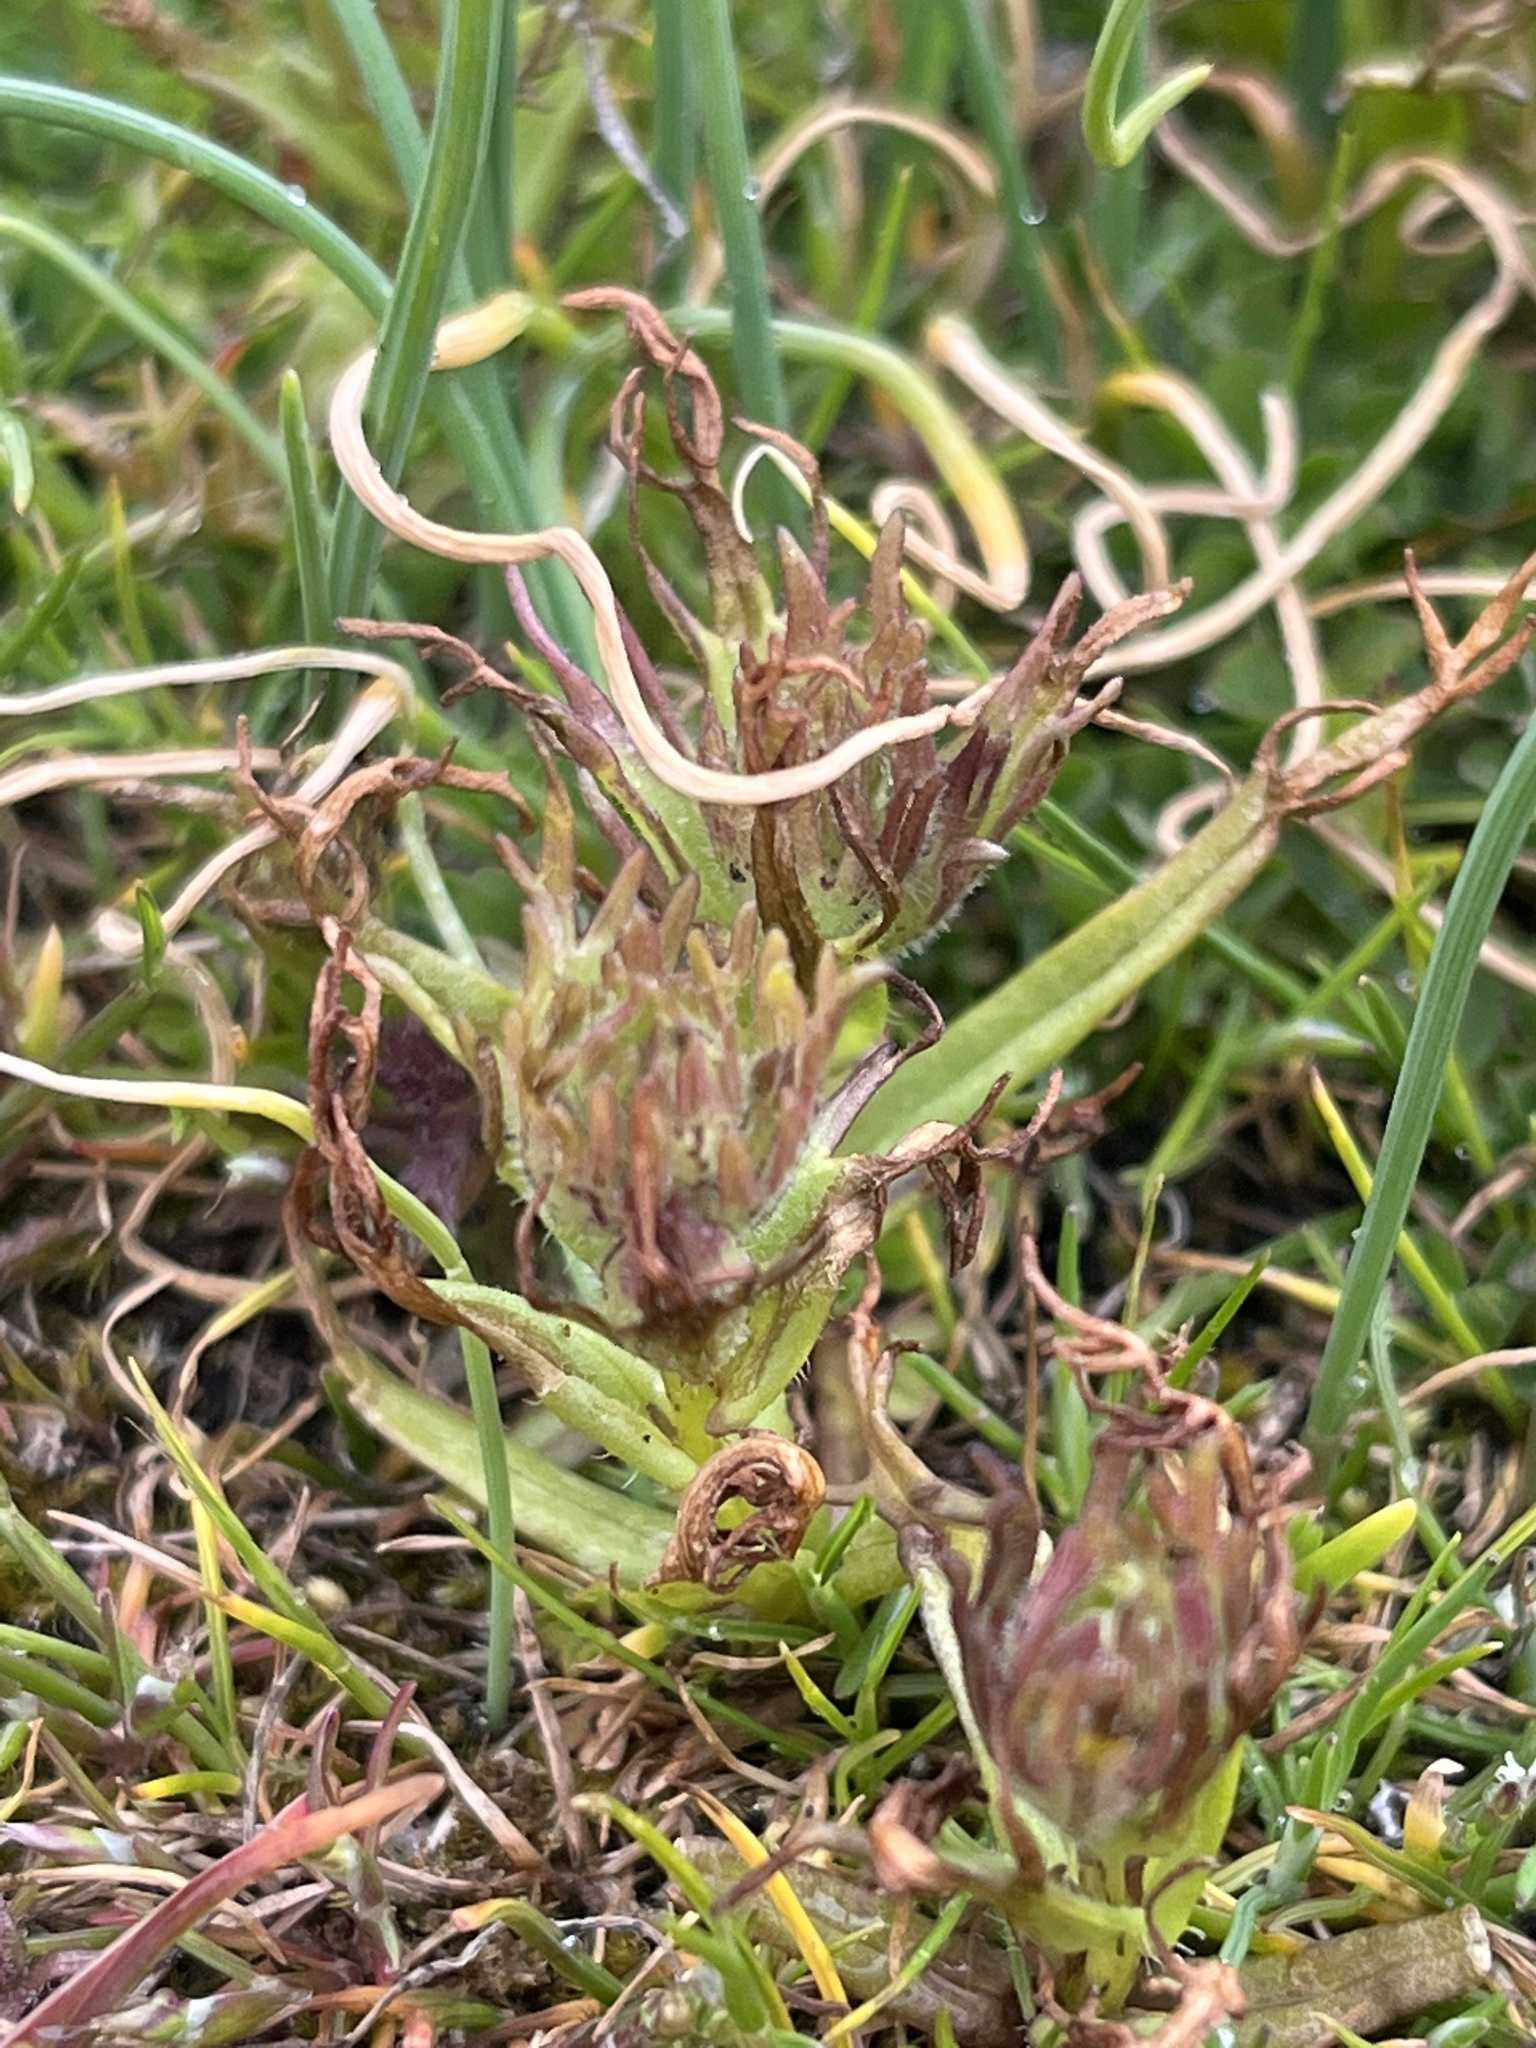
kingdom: Plantae
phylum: Tracheophyta
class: Magnoliopsida
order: Lamiales
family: Orobanchaceae
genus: Triphysaria
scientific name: Triphysaria versicolor
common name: Bearded false owl-clover
